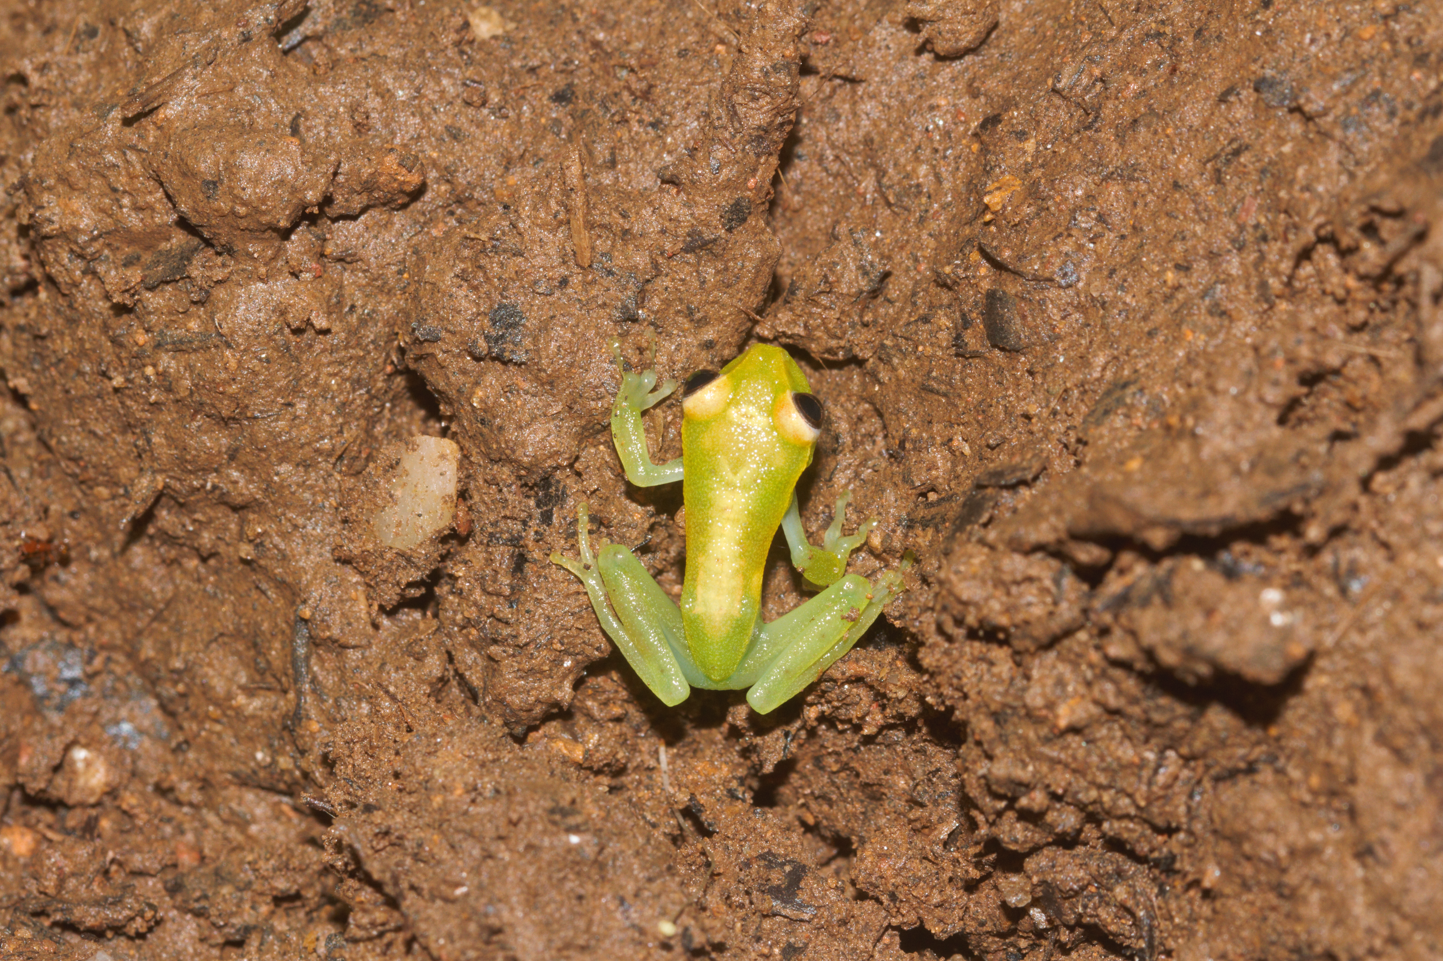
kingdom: Animalia
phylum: Chordata
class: Amphibia
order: Anura
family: Hylidae
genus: Boana
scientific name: Boana punctata
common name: Polka-dot treefrog
